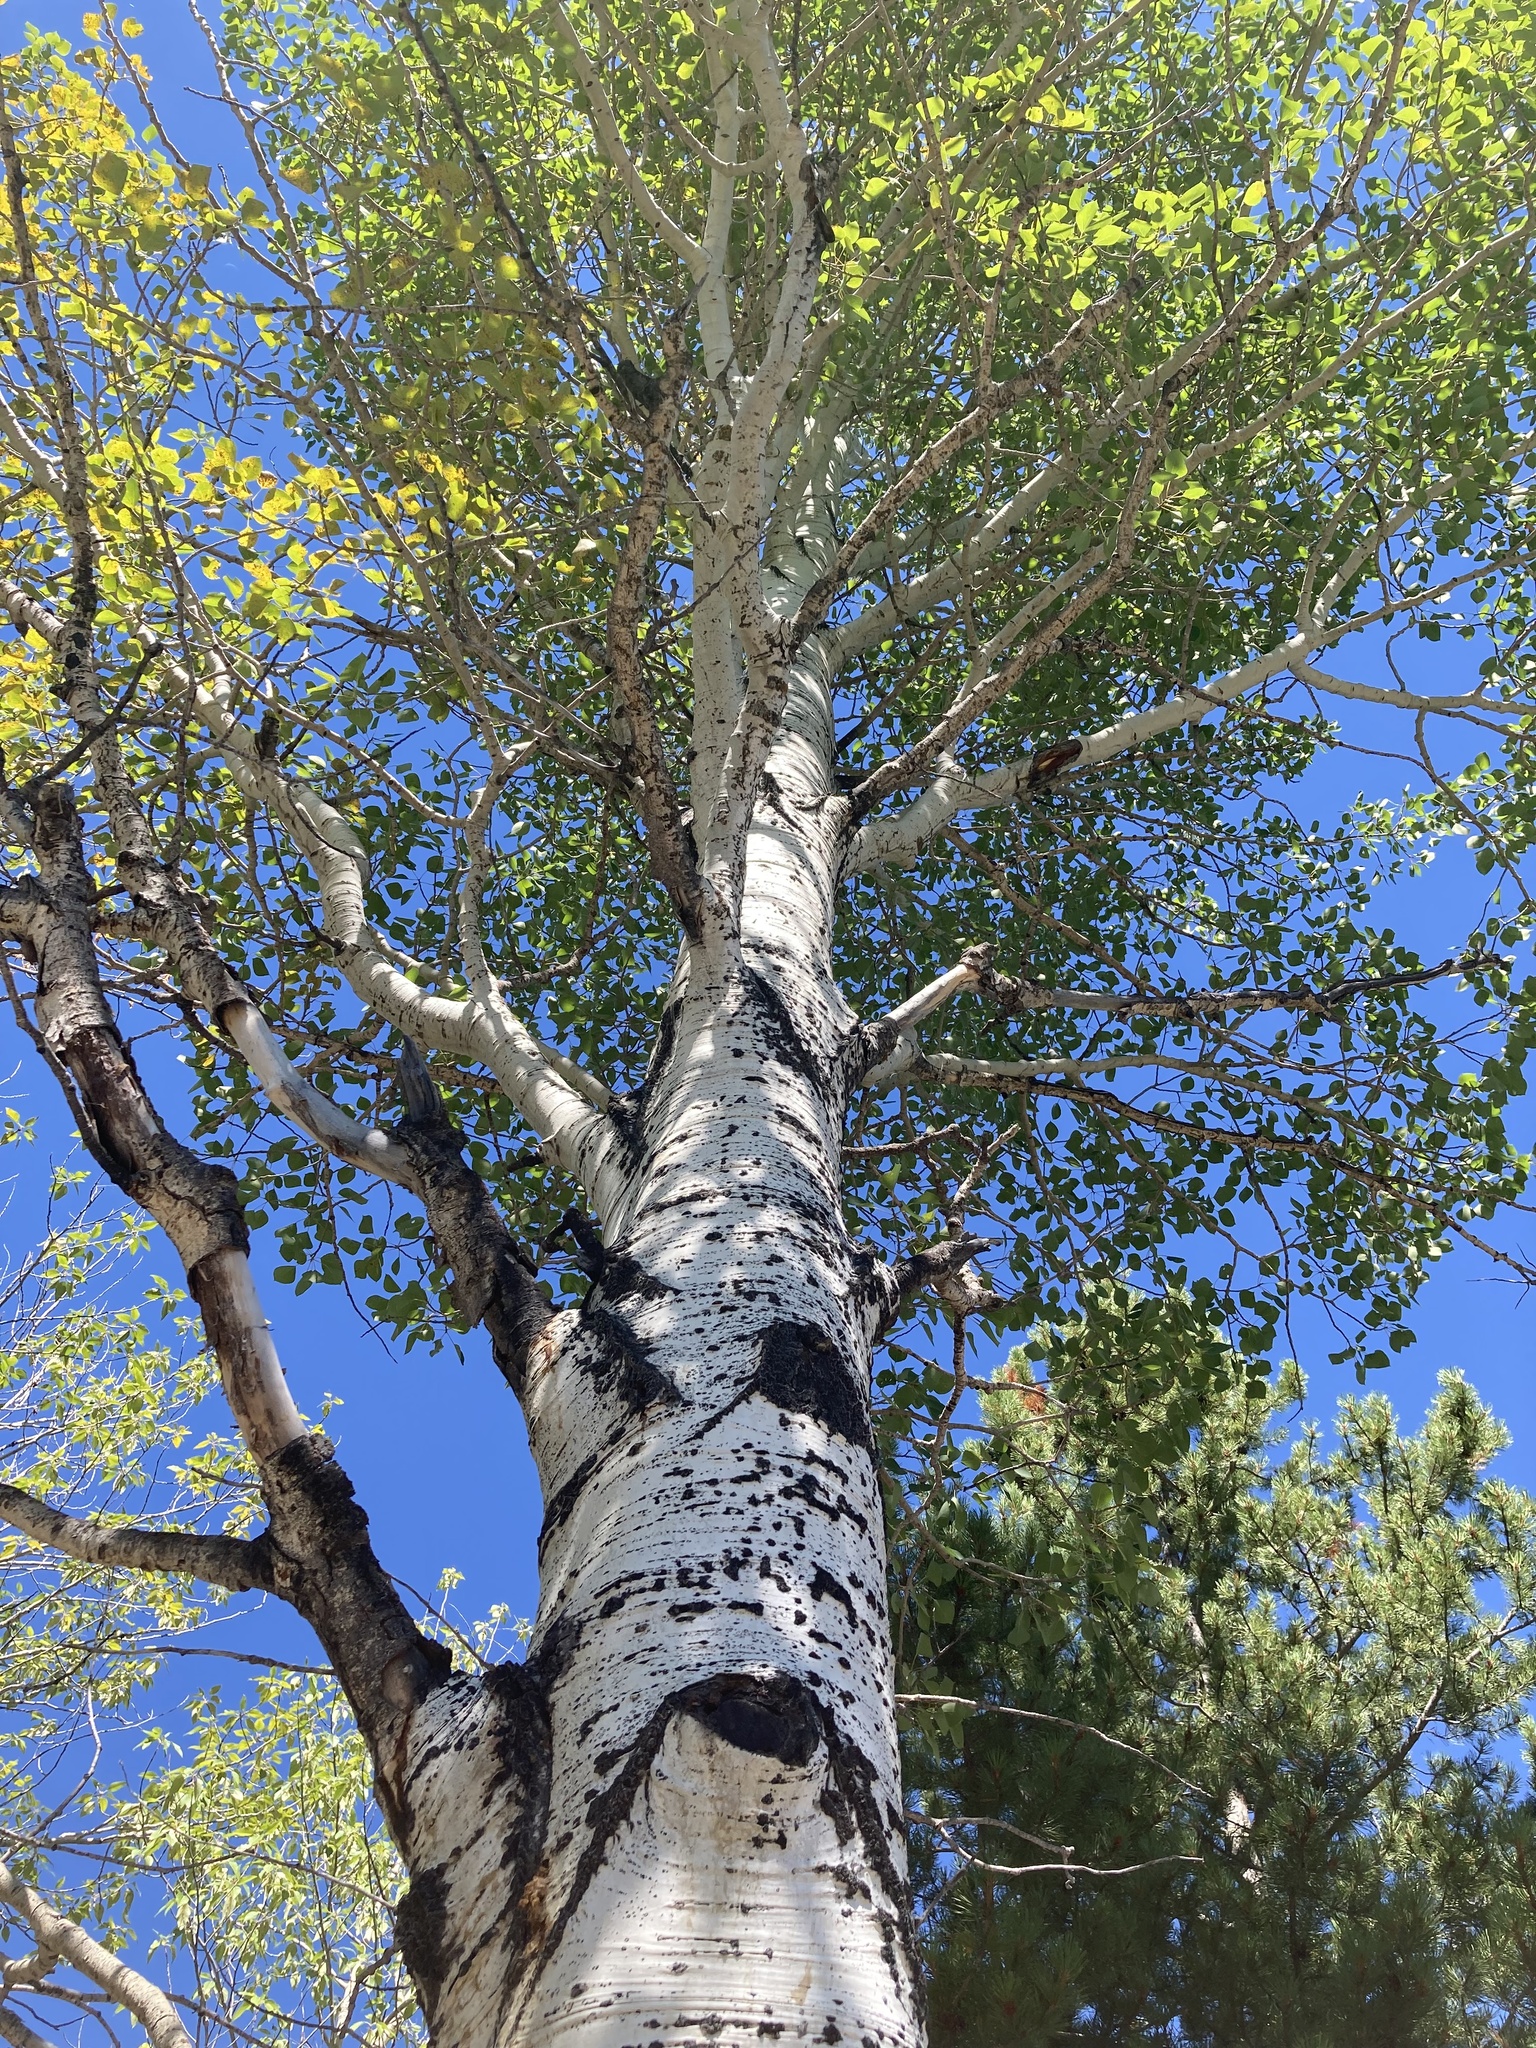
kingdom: Plantae
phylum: Tracheophyta
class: Magnoliopsida
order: Malpighiales
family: Salicaceae
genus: Populus
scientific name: Populus tremuloides
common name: Quaking aspen
